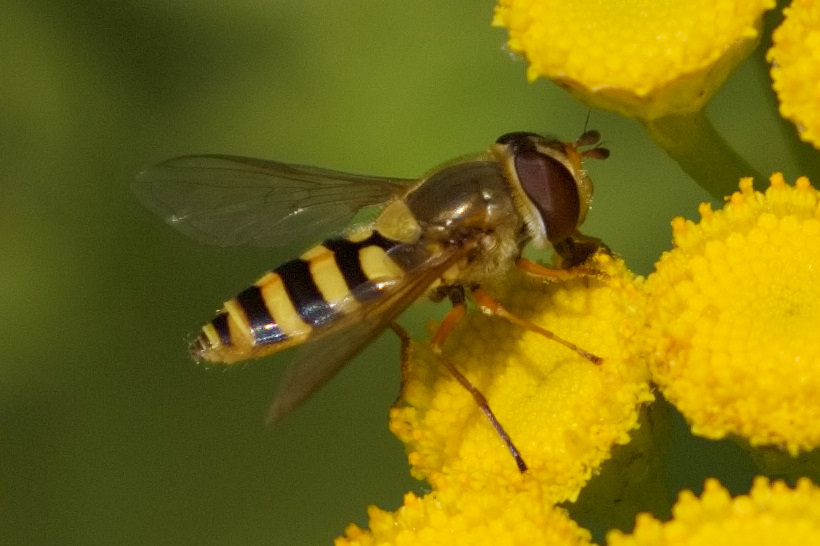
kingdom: Animalia
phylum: Arthropoda
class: Insecta
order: Diptera
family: Syrphidae
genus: Syrphus
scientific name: Syrphus ribesii
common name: Common flower fly
